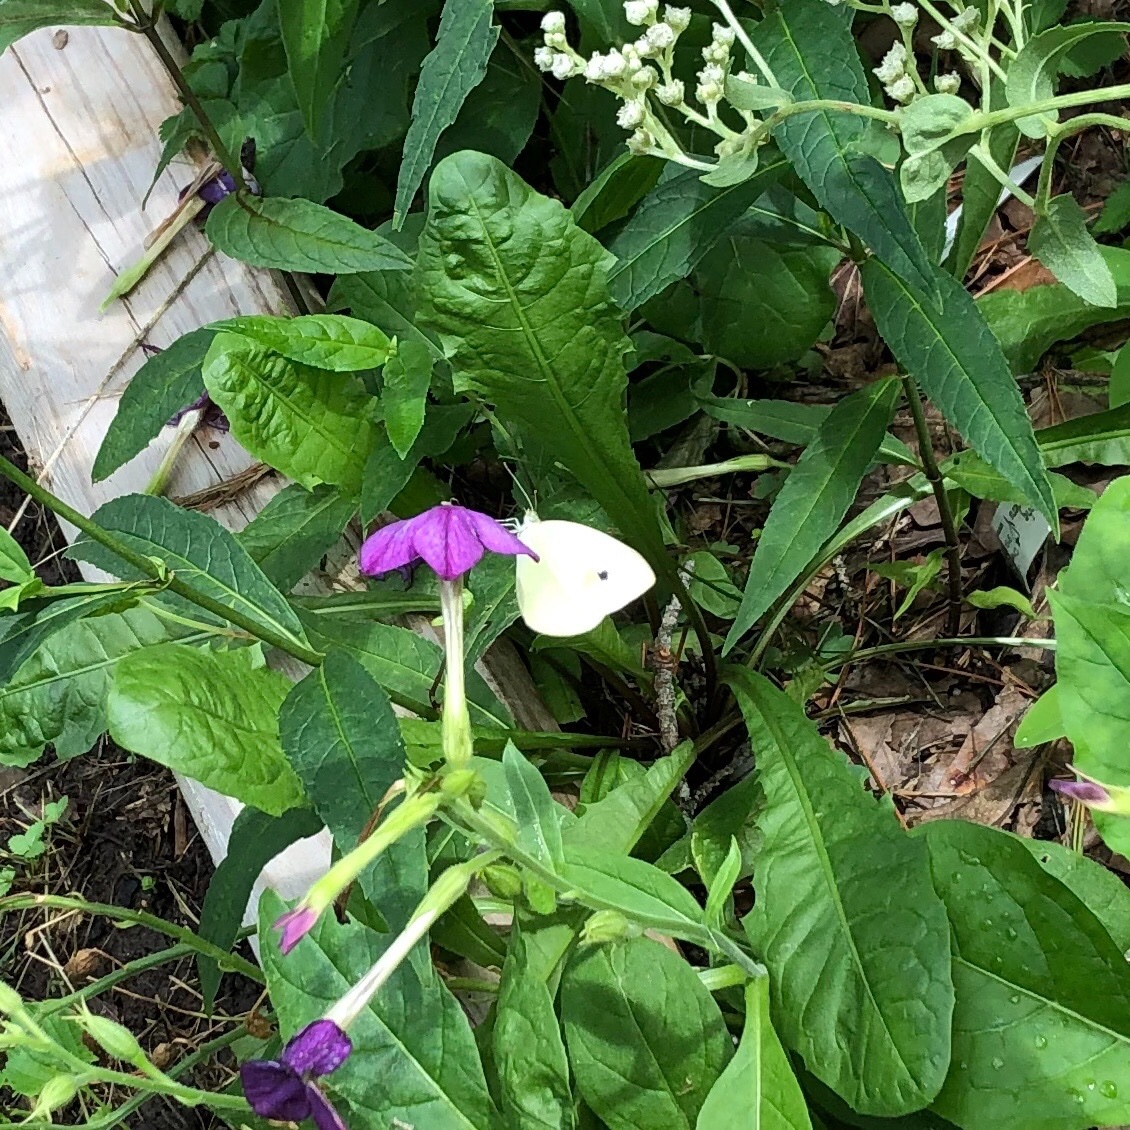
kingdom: Animalia
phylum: Arthropoda
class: Insecta
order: Lepidoptera
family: Pieridae
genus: Pieris
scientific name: Pieris rapae
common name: Small white
